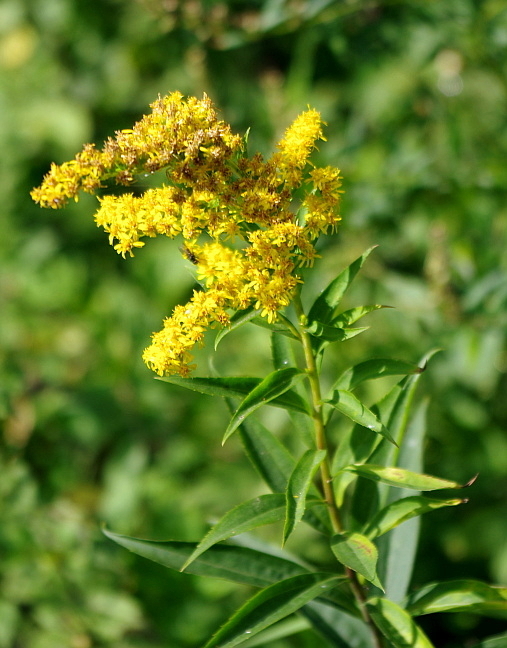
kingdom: Plantae
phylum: Tracheophyta
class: Magnoliopsida
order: Asterales
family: Asteraceae
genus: Solidago
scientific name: Solidago canadensis
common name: Canada goldenrod
